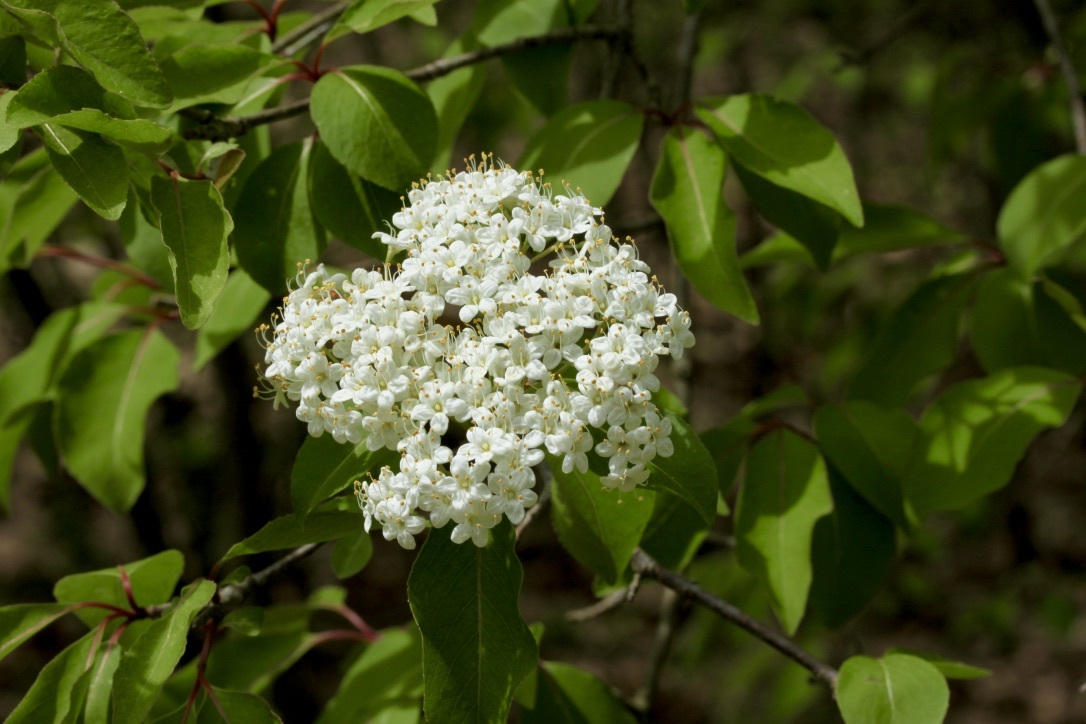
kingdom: Plantae
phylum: Tracheophyta
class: Magnoliopsida
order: Dipsacales
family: Viburnaceae
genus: Viburnum
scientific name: Viburnum prunifolium
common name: Black haw
